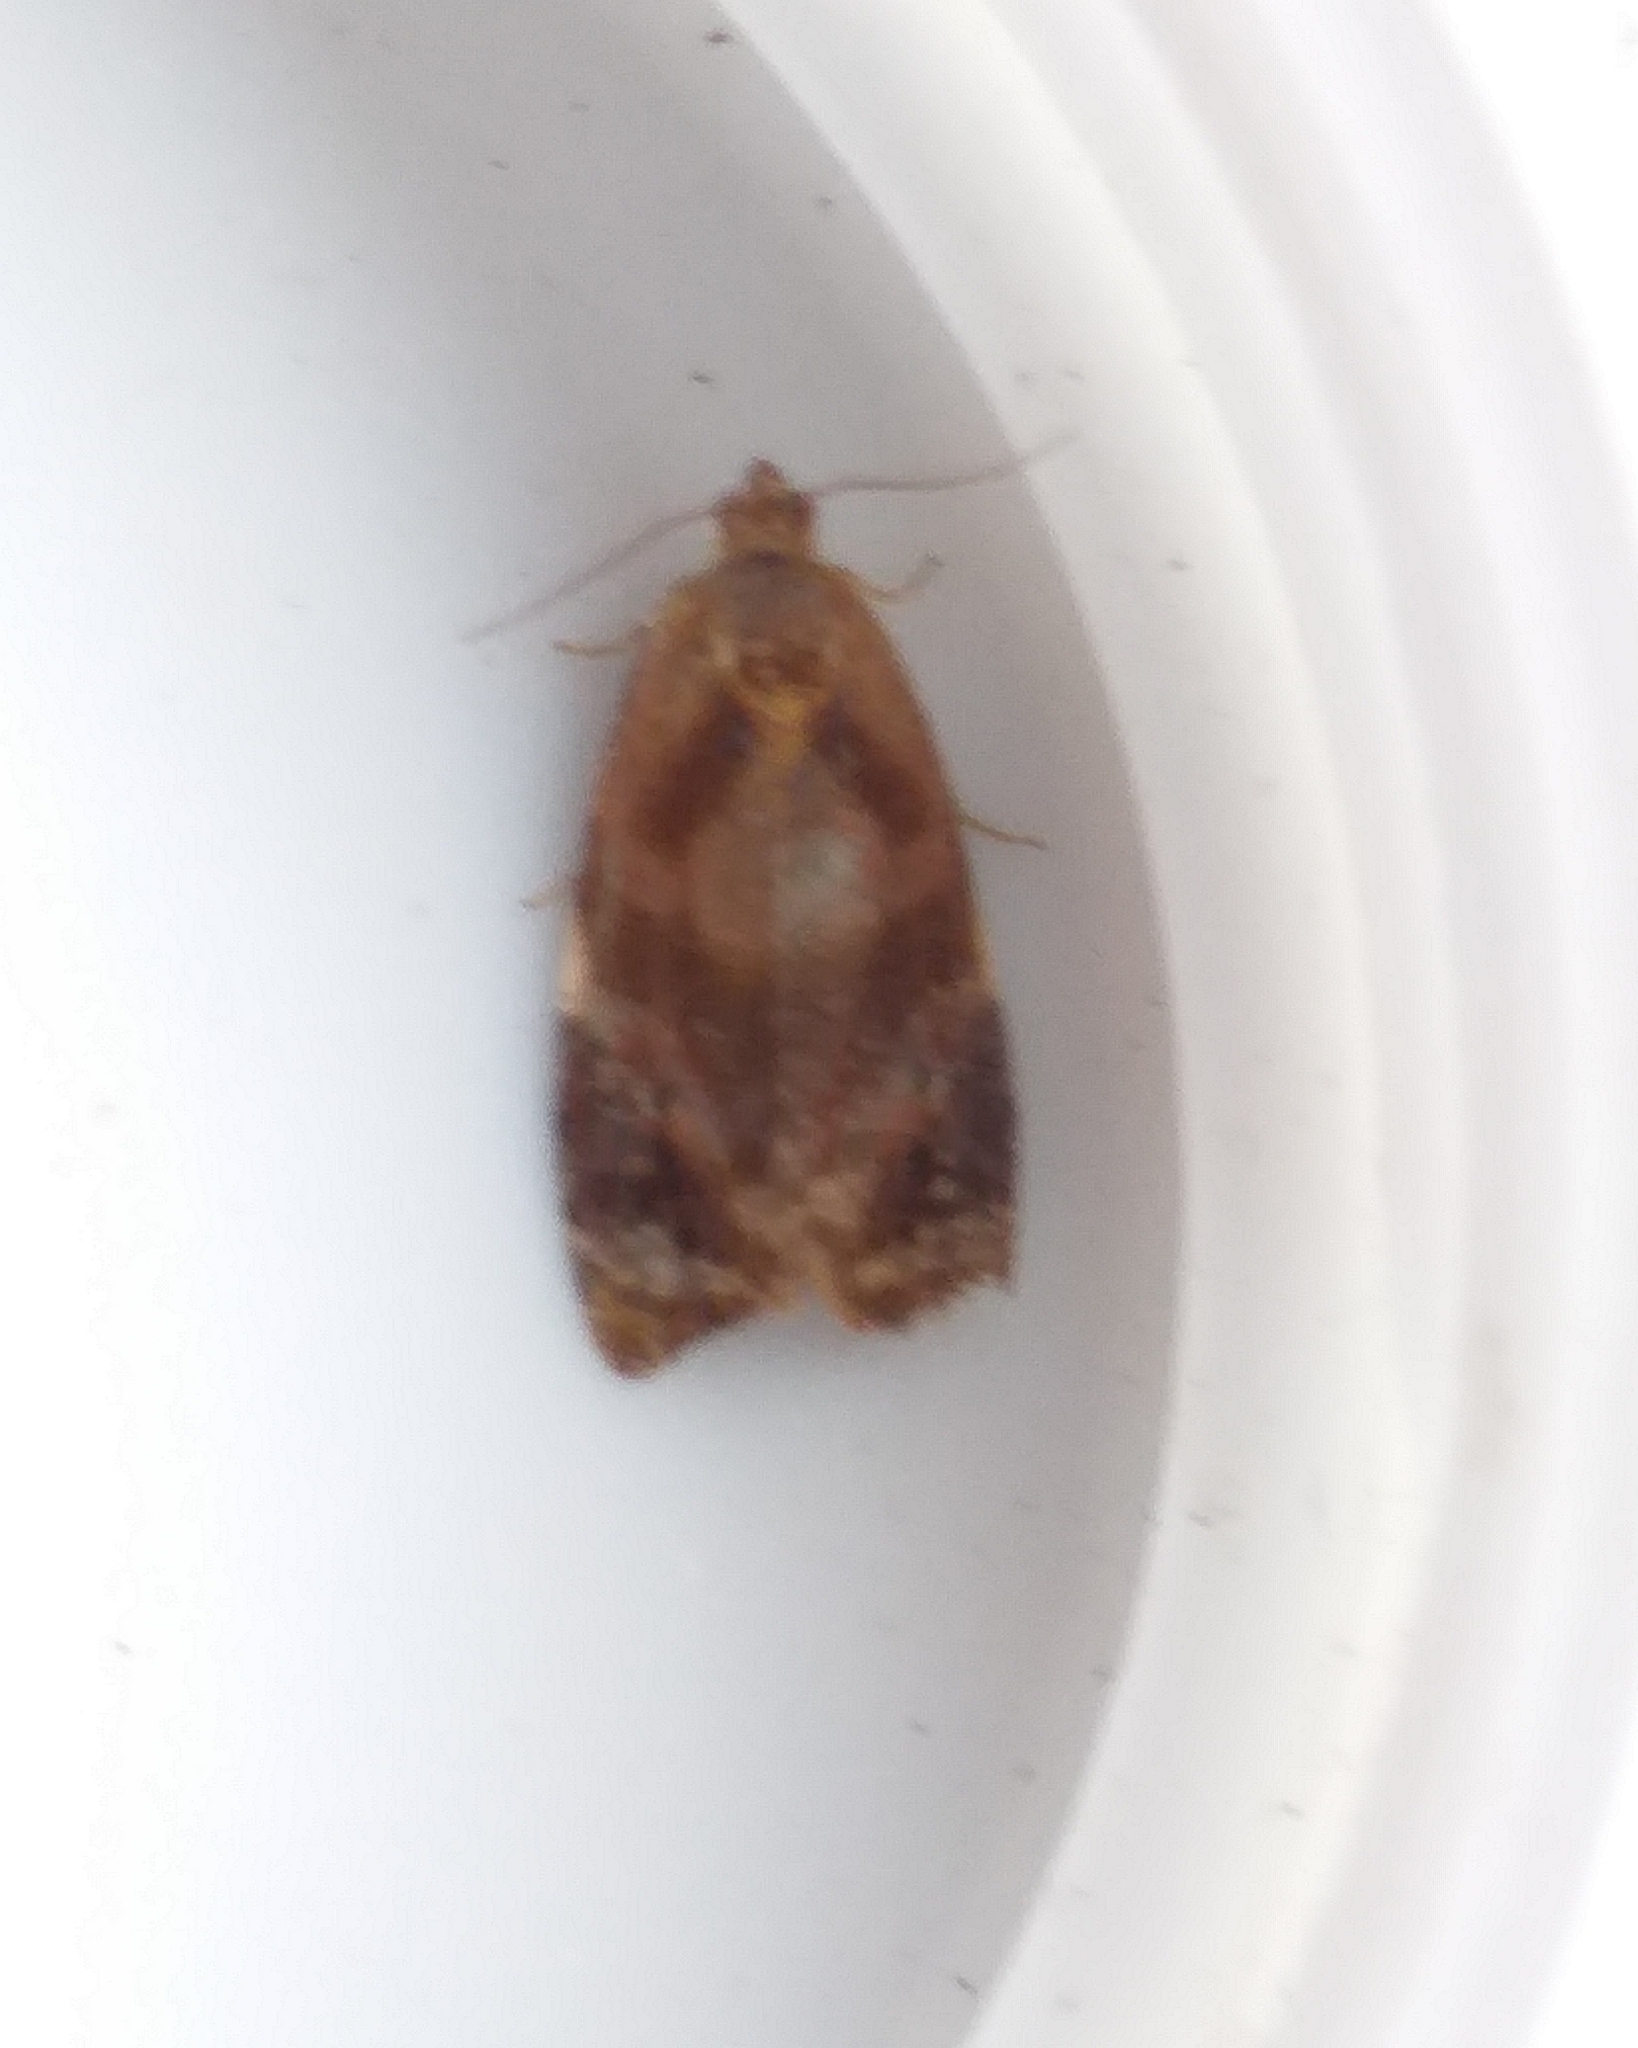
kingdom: Animalia
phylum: Arthropoda
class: Insecta
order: Lepidoptera
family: Tortricidae
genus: Ditula
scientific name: Ditula angustiorana
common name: Red-barred tortrix
